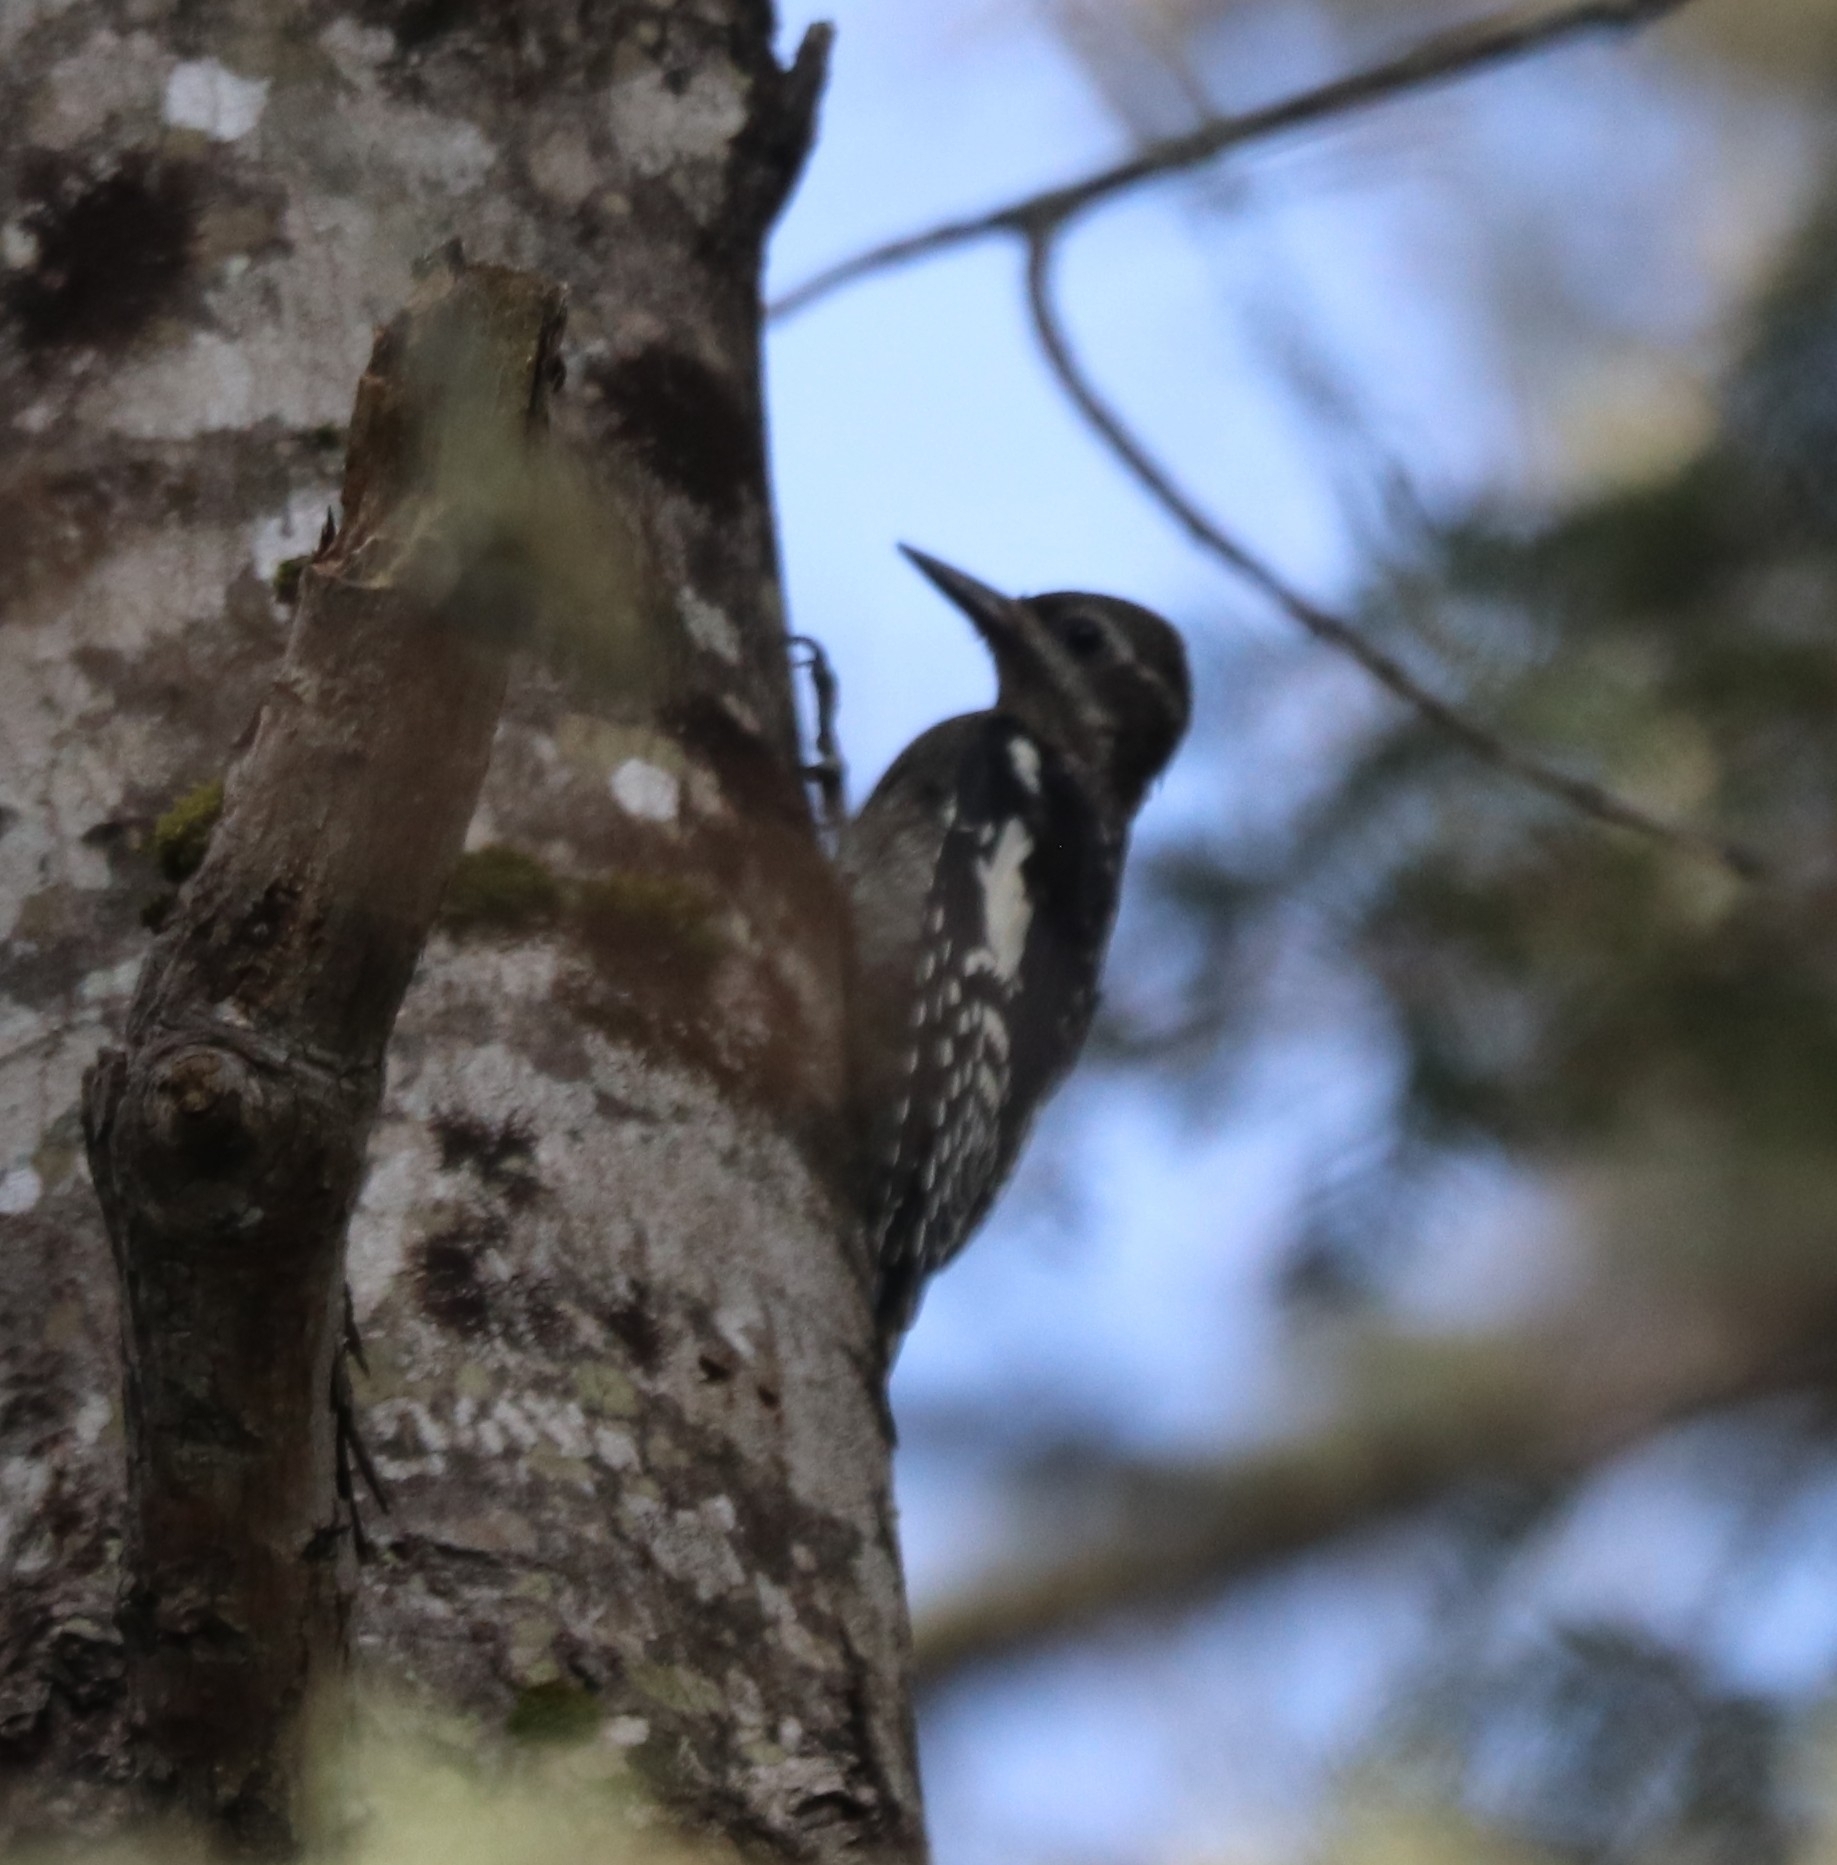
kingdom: Animalia
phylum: Chordata
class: Aves
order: Piciformes
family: Picidae
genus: Sphyrapicus
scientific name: Sphyrapicus varius
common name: Yellow-bellied sapsucker
